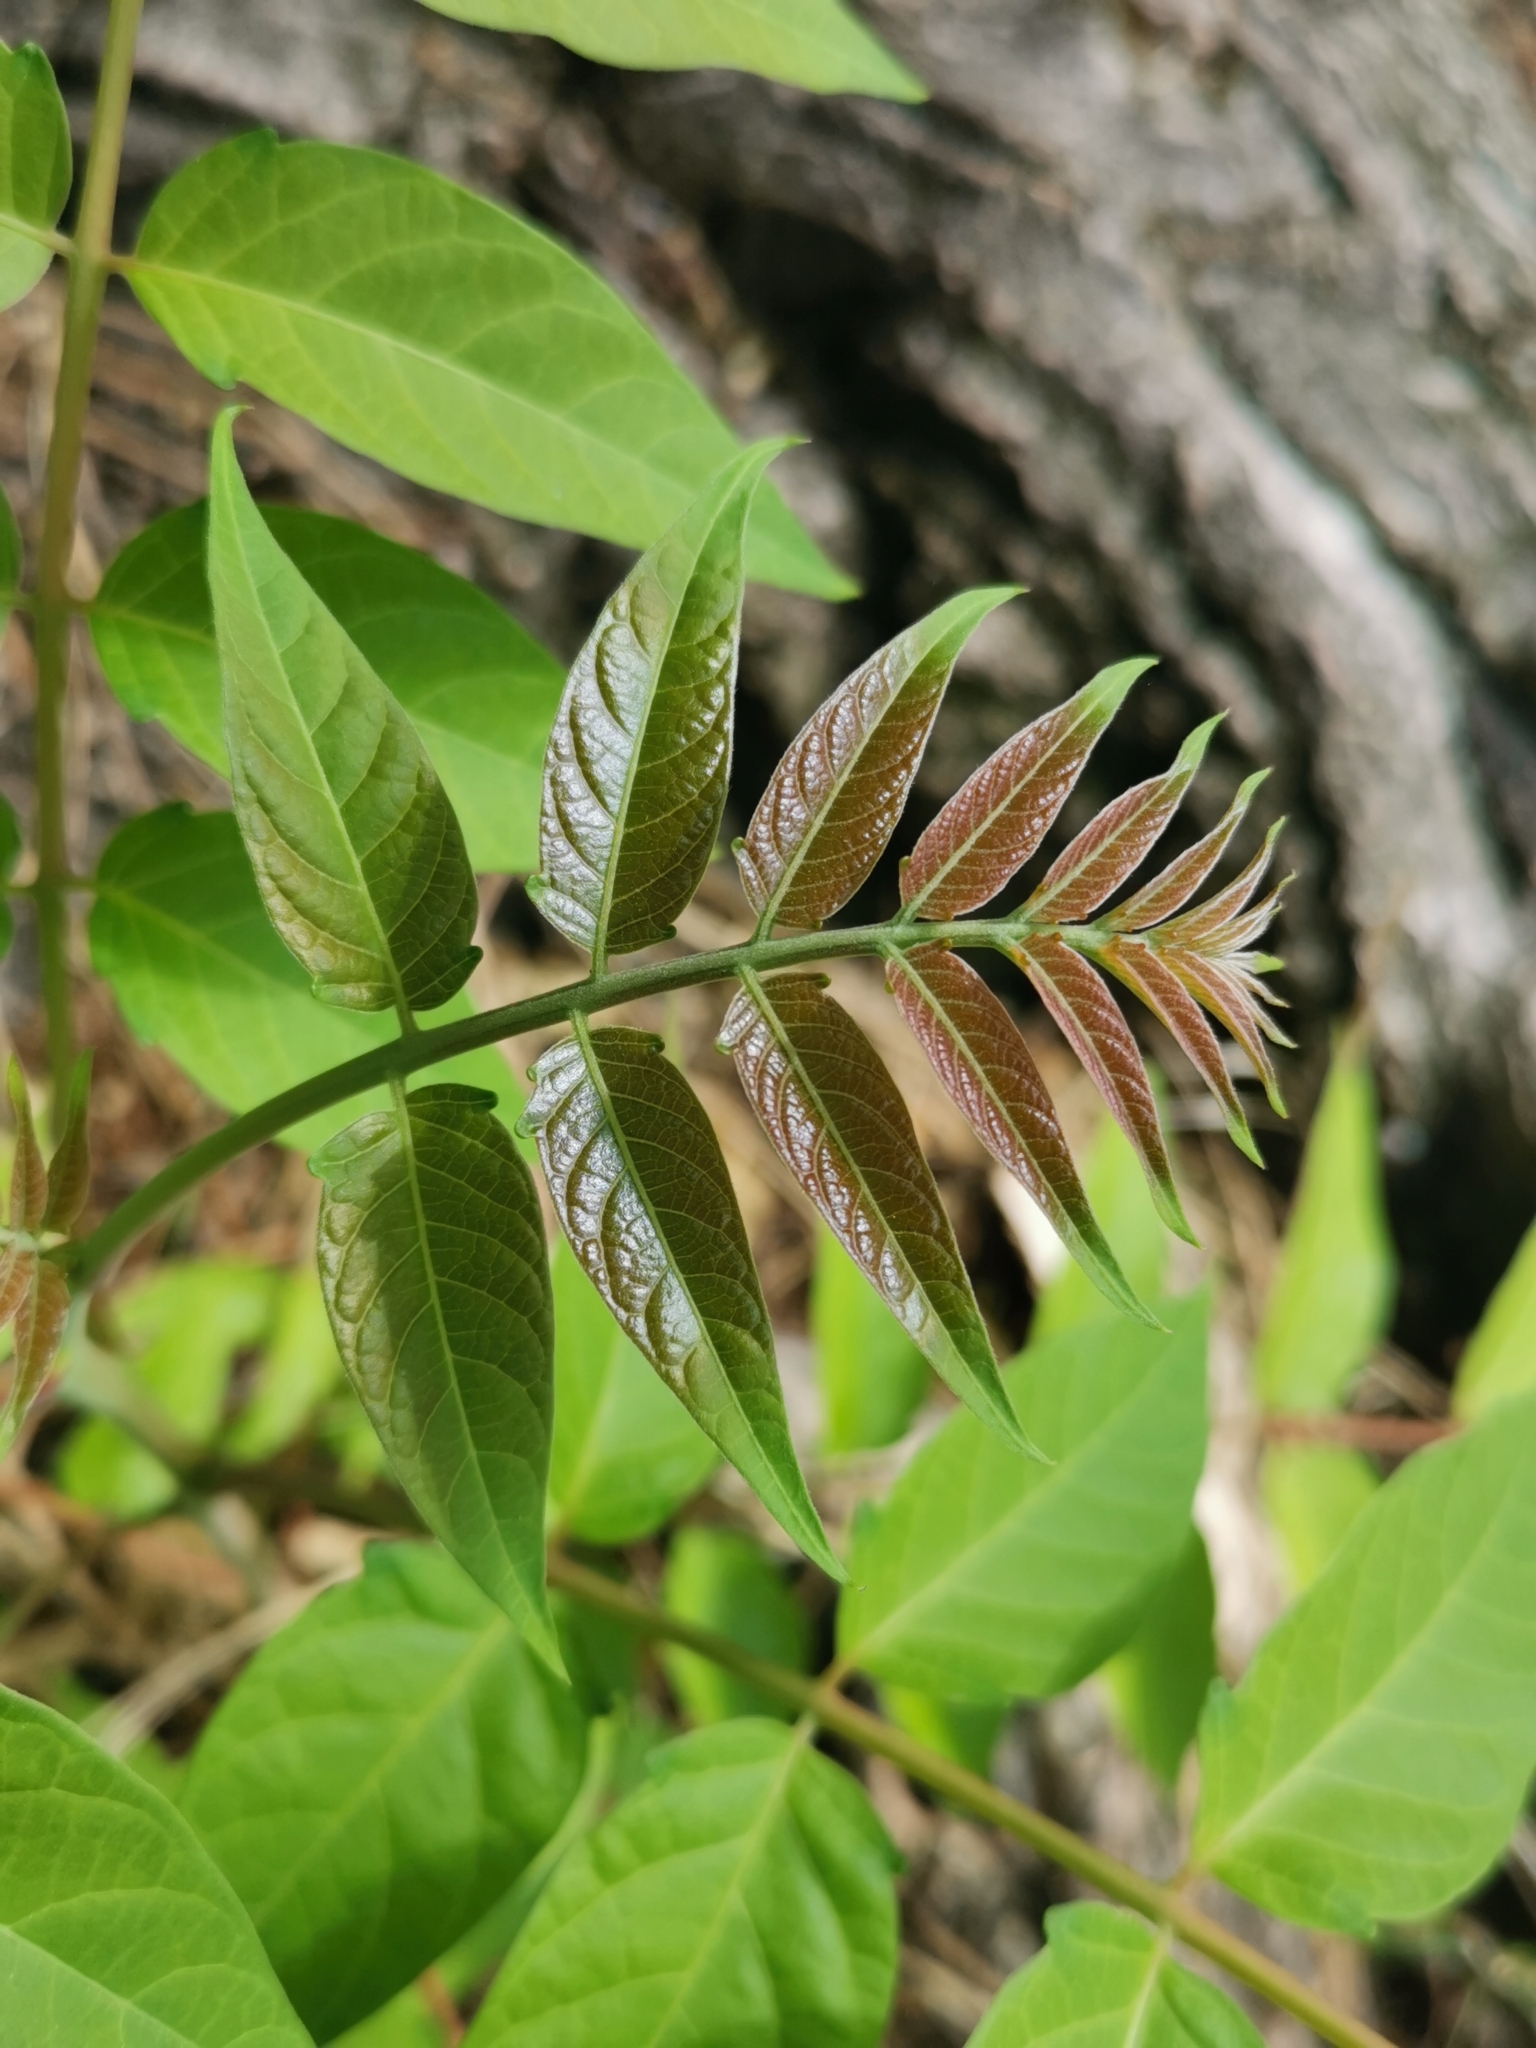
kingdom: Plantae
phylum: Tracheophyta
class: Magnoliopsida
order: Sapindales
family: Simaroubaceae
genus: Ailanthus
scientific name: Ailanthus altissima
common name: Tree-of-heaven
